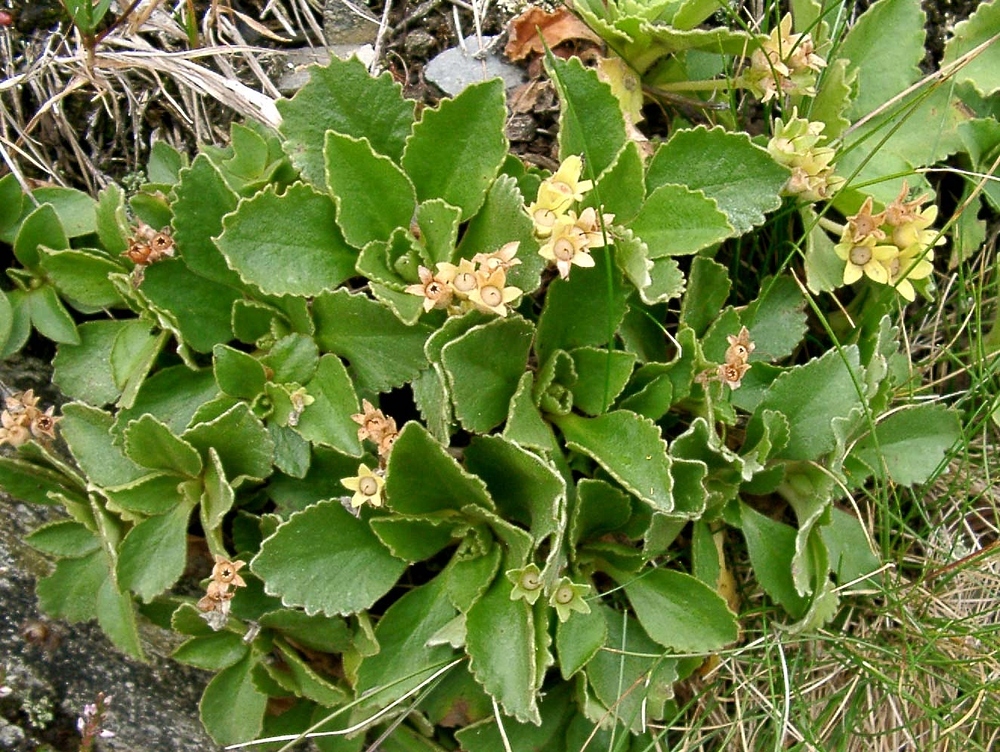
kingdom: Plantae
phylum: Tracheophyta
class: Magnoliopsida
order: Ericales
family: Primulaceae
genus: Primula
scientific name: Primula hirsuta
